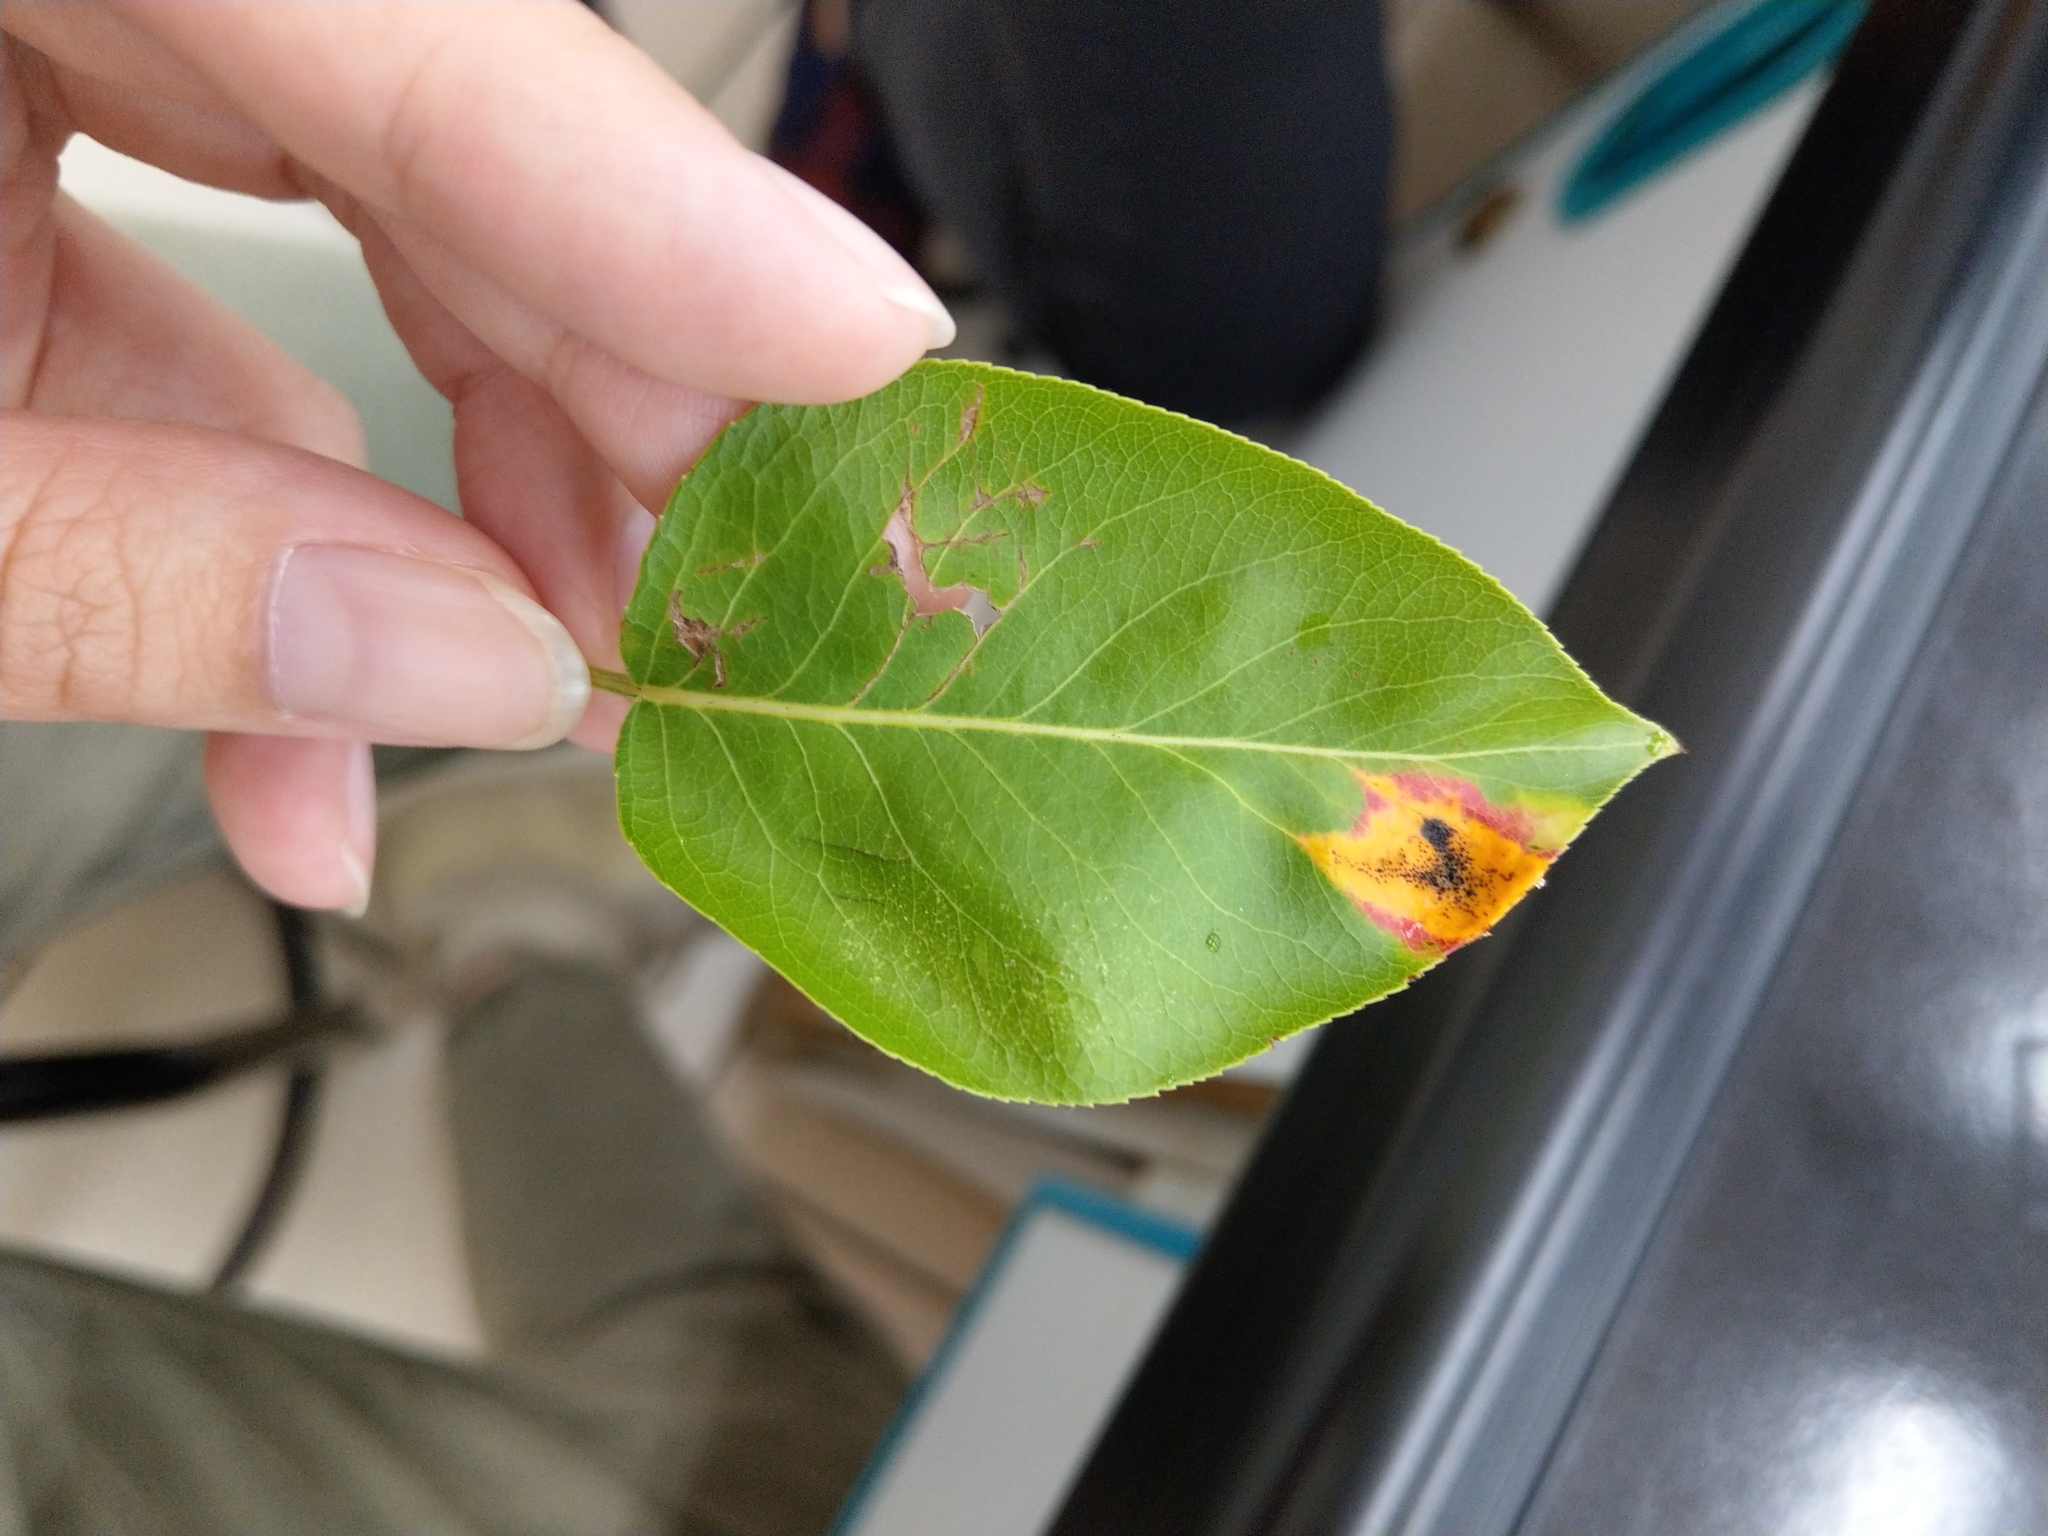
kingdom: Fungi
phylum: Basidiomycota
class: Pucciniomycetes
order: Pucciniales
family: Gymnosporangiaceae
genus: Gymnosporangium
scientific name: Gymnosporangium asiaticum
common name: Japanese pear rust
